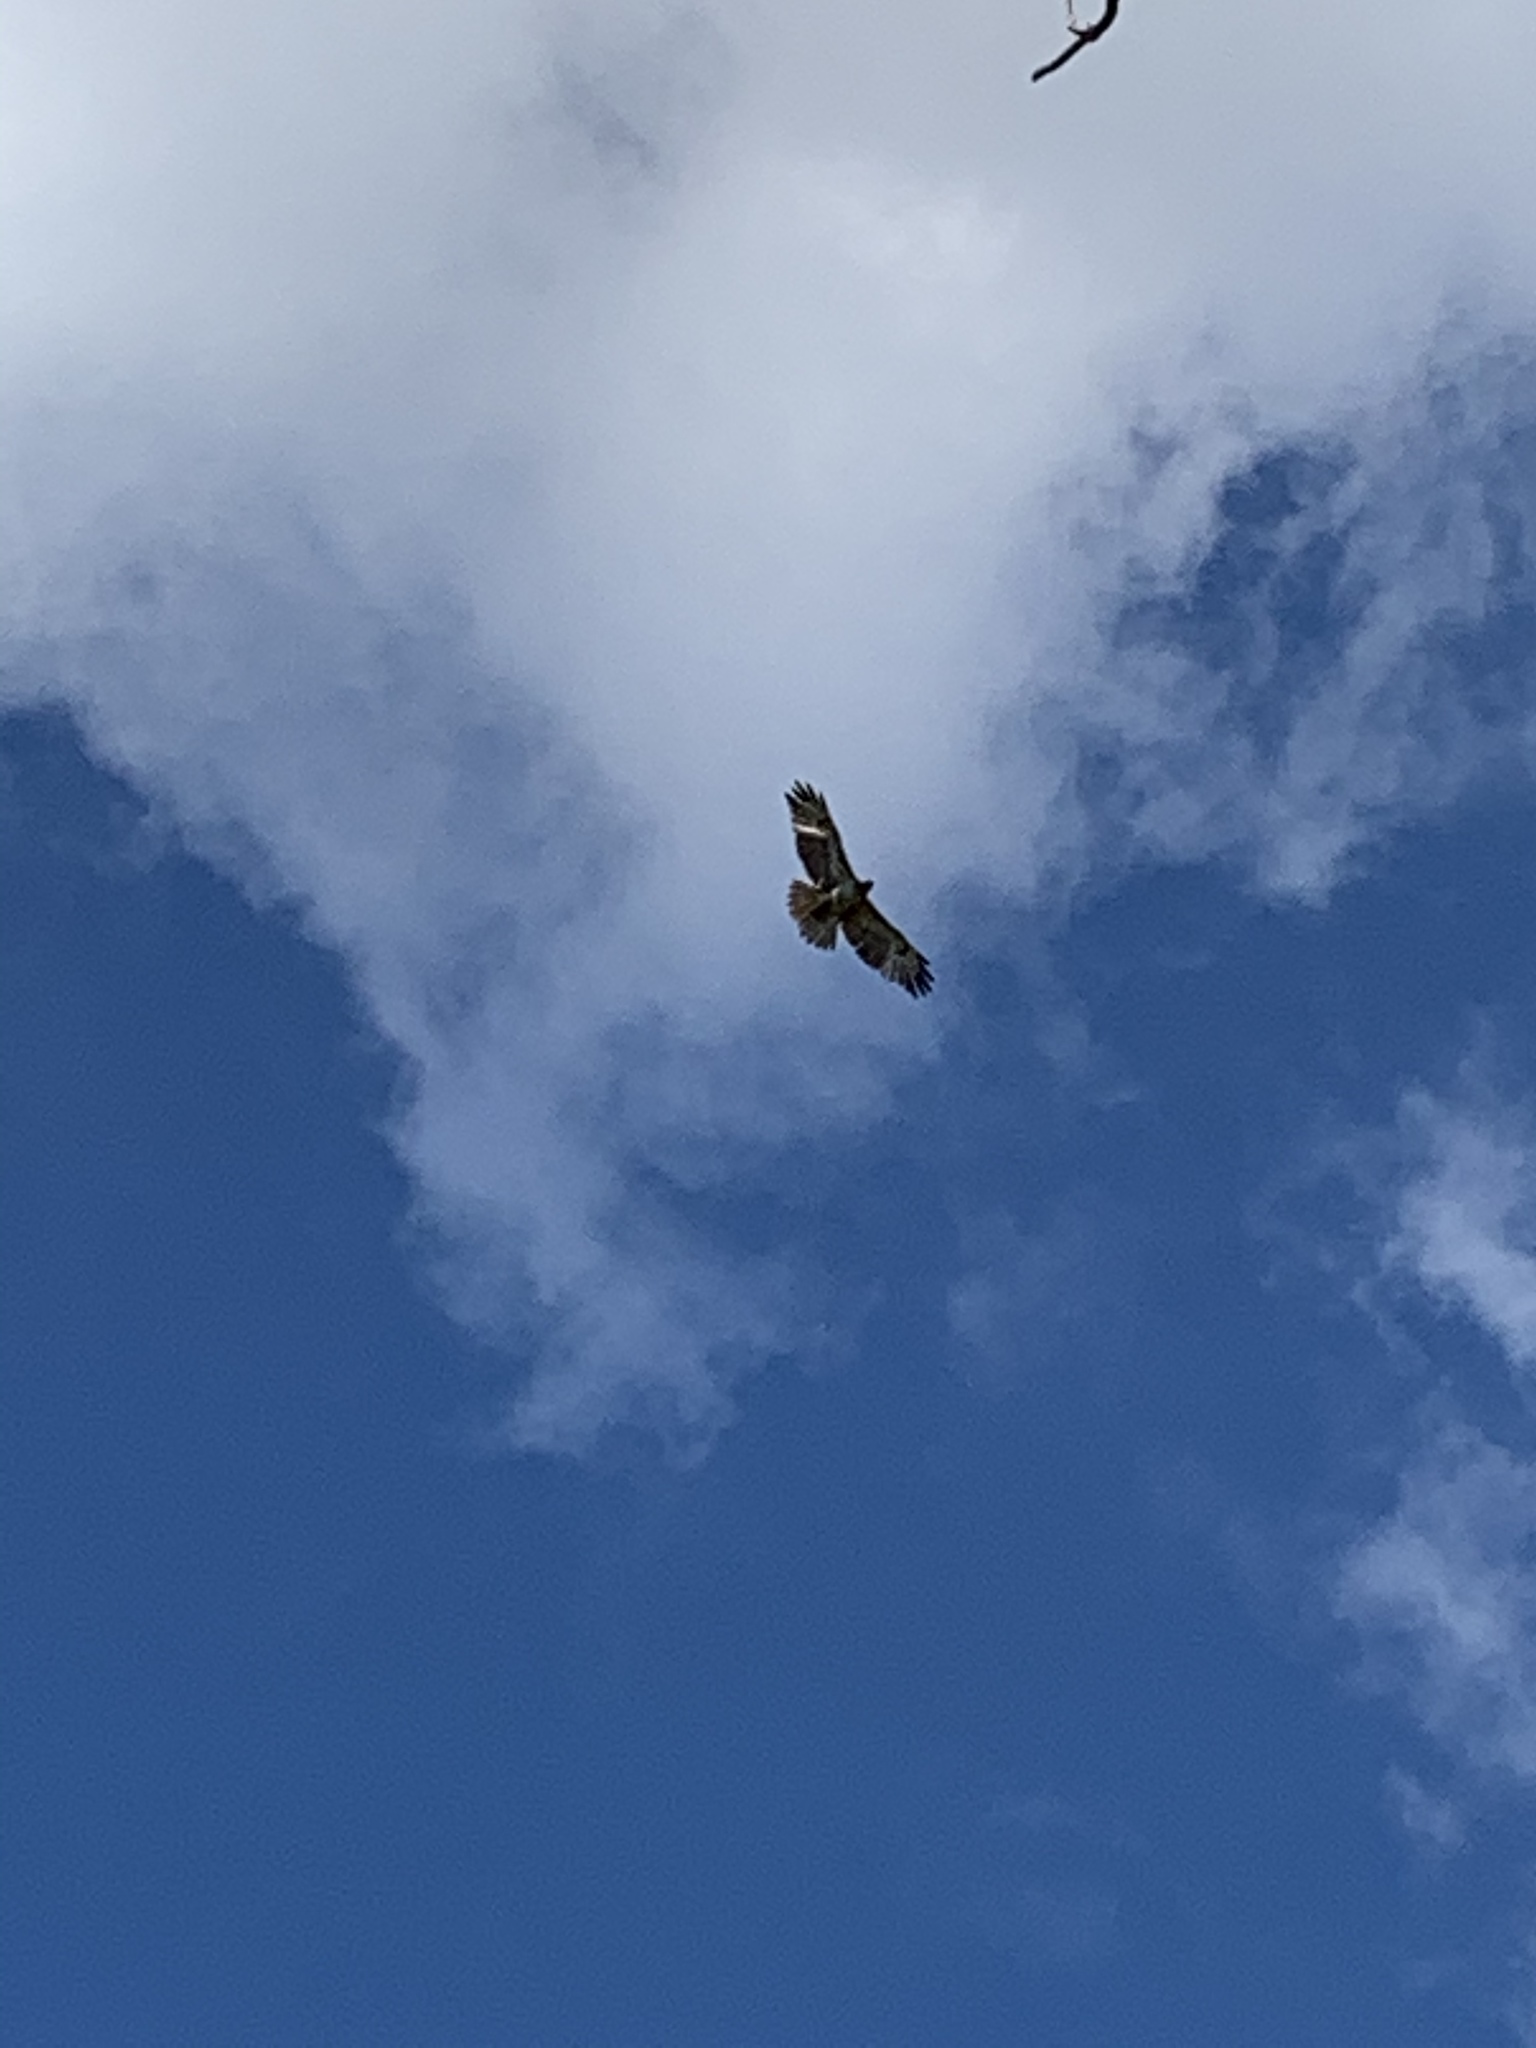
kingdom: Animalia
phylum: Chordata
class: Aves
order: Accipitriformes
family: Accipitridae
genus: Buteo
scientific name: Buteo jamaicensis
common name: Red-tailed hawk
